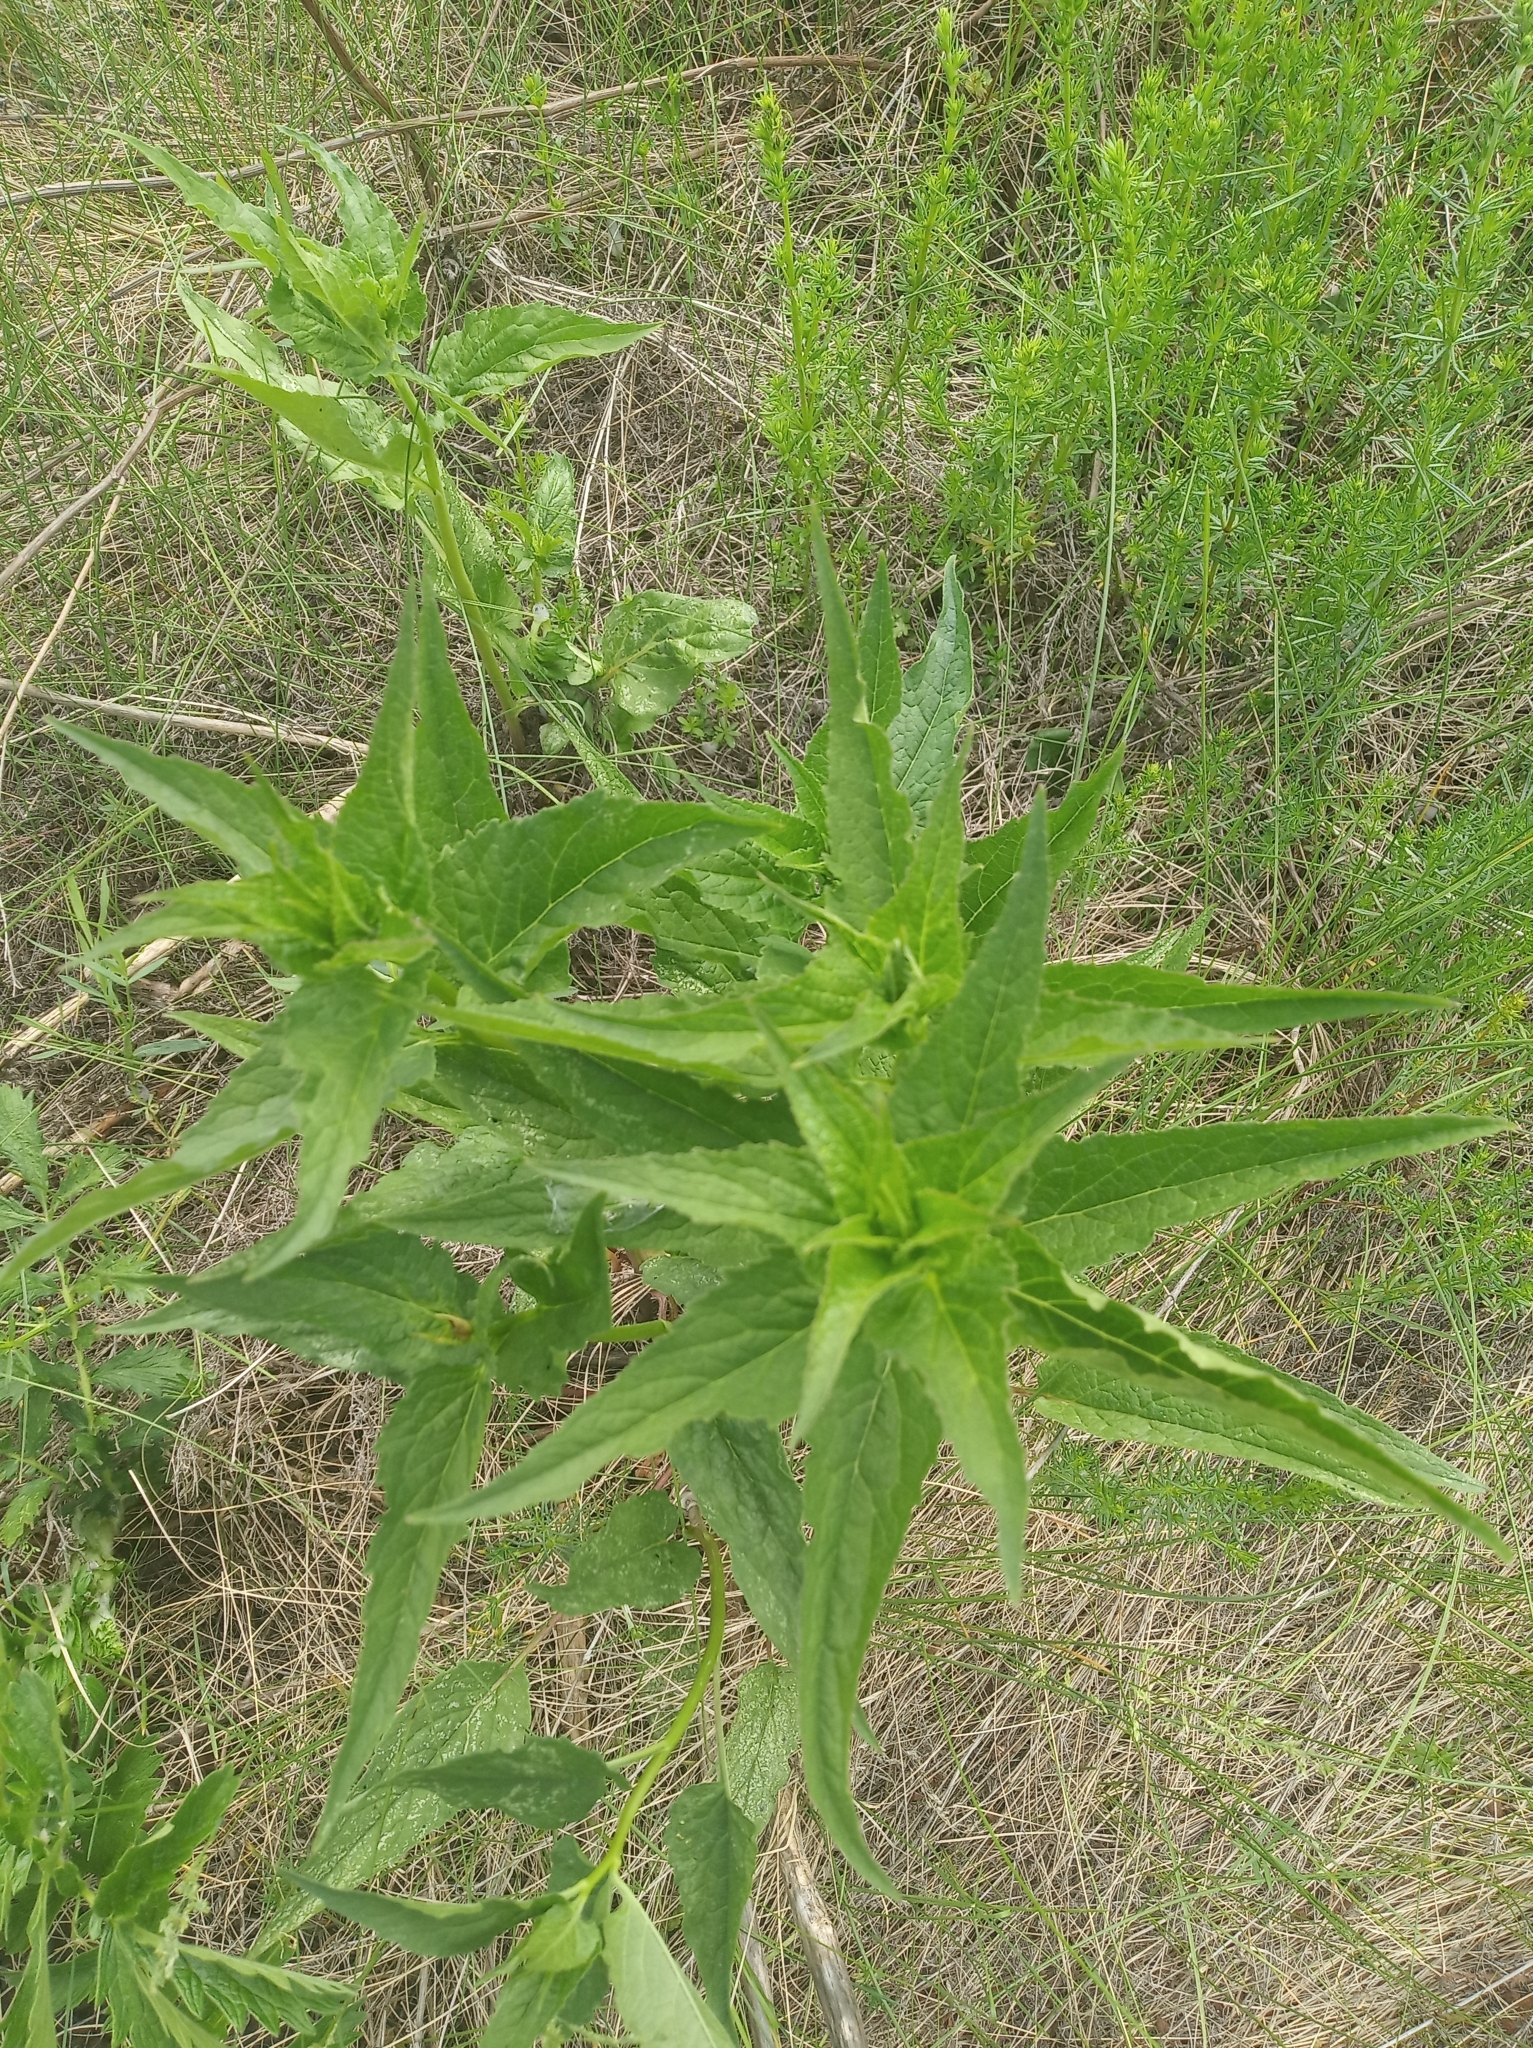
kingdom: Plantae
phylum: Tracheophyta
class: Magnoliopsida
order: Asterales
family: Campanulaceae
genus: Campanula
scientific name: Campanula rapunculoides
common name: Creeping bellflower
